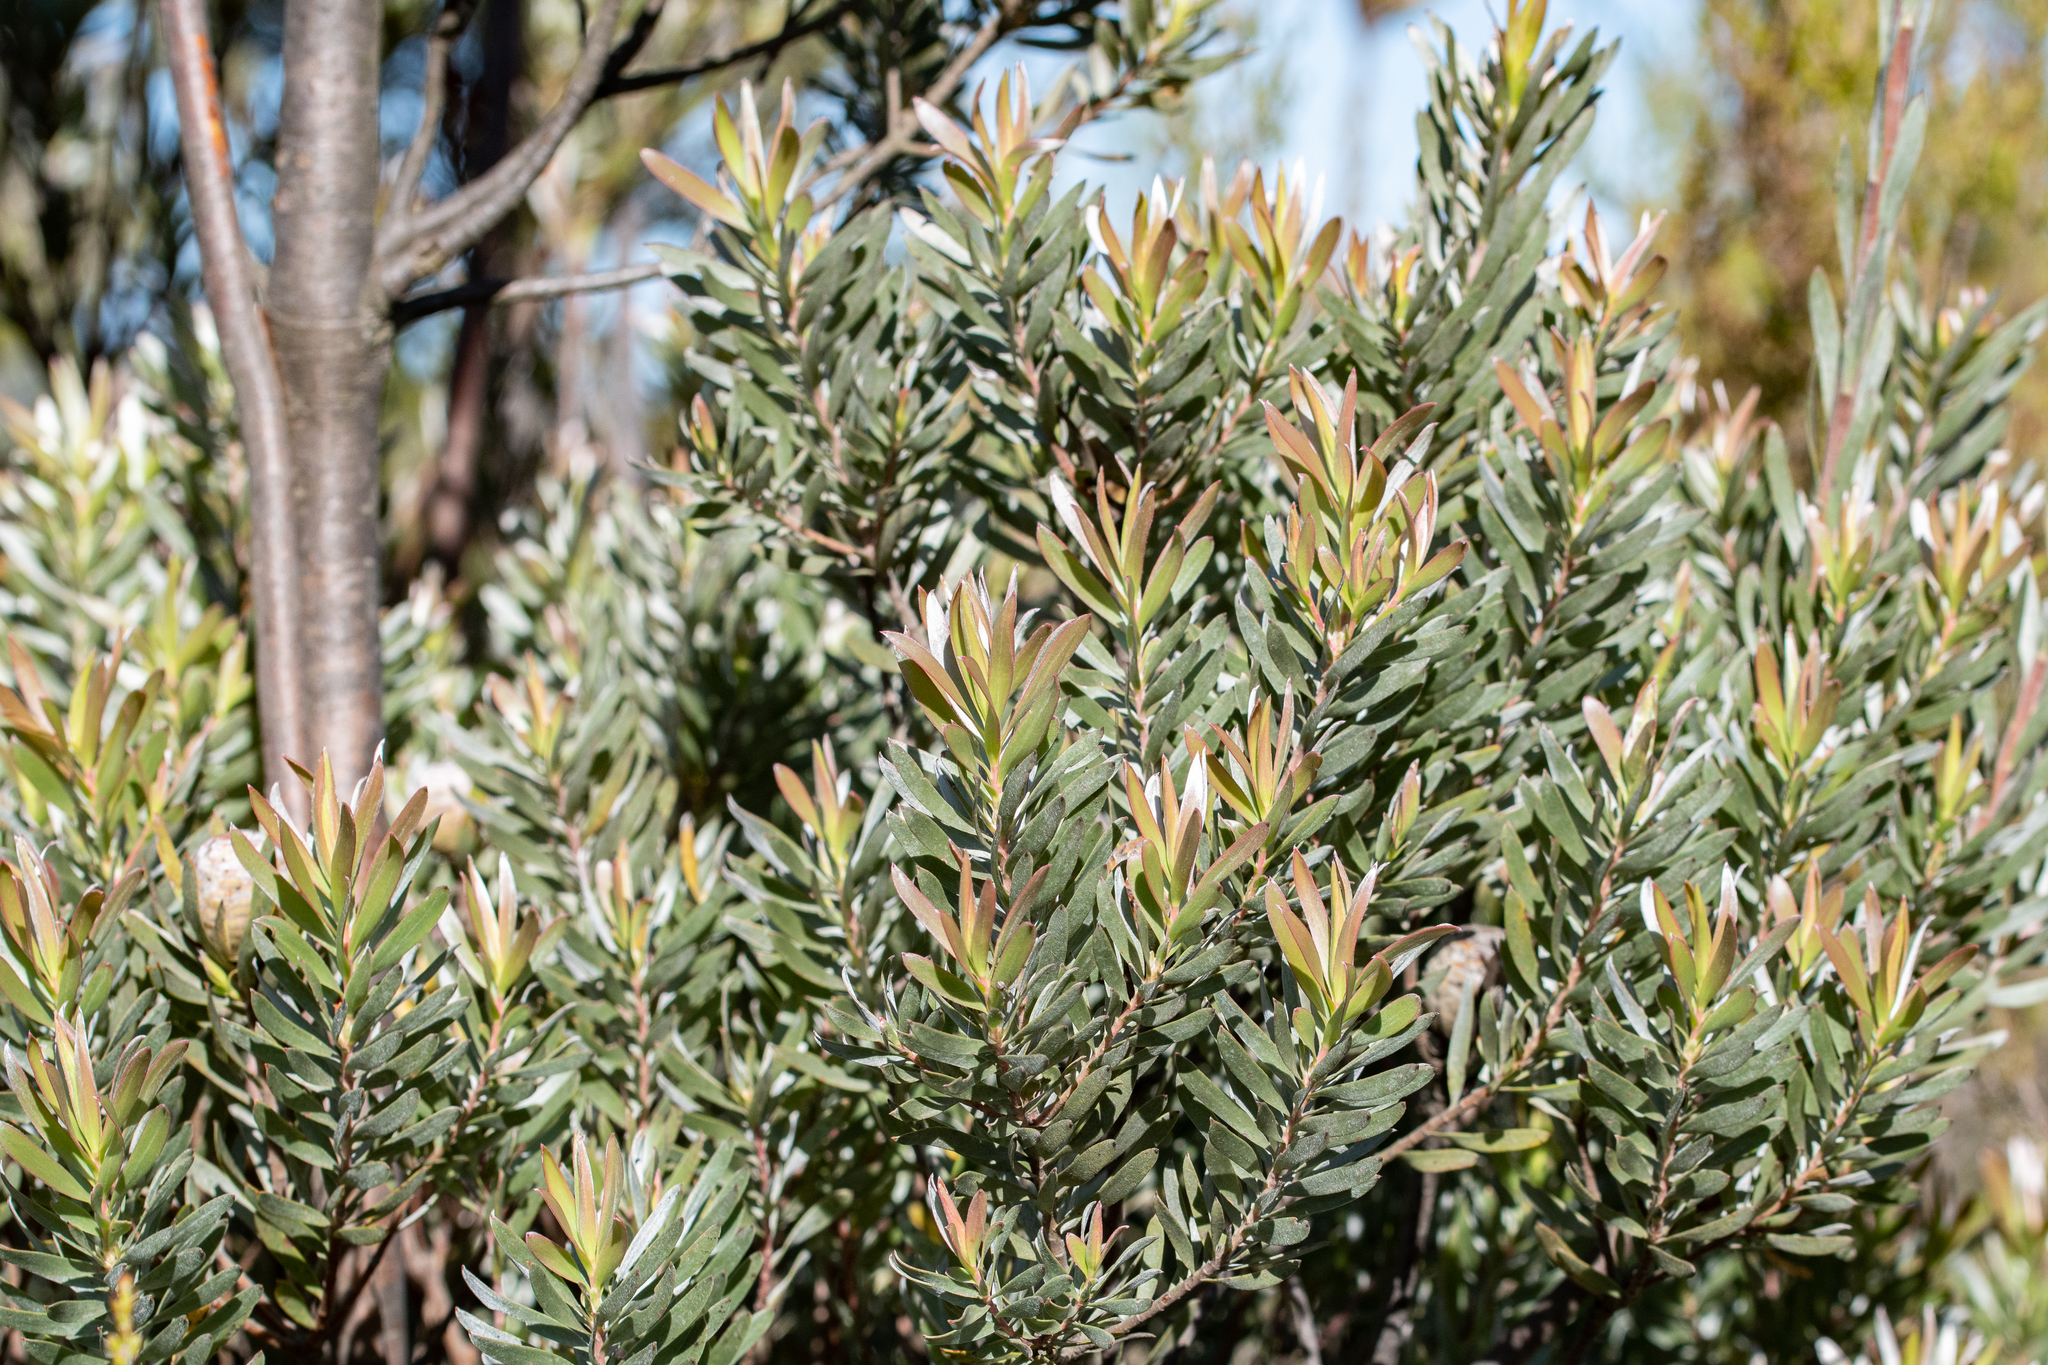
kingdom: Plantae
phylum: Tracheophyta
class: Magnoliopsida
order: Proteales
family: Proteaceae
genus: Leucadendron
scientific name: Leucadendron uliginosum
